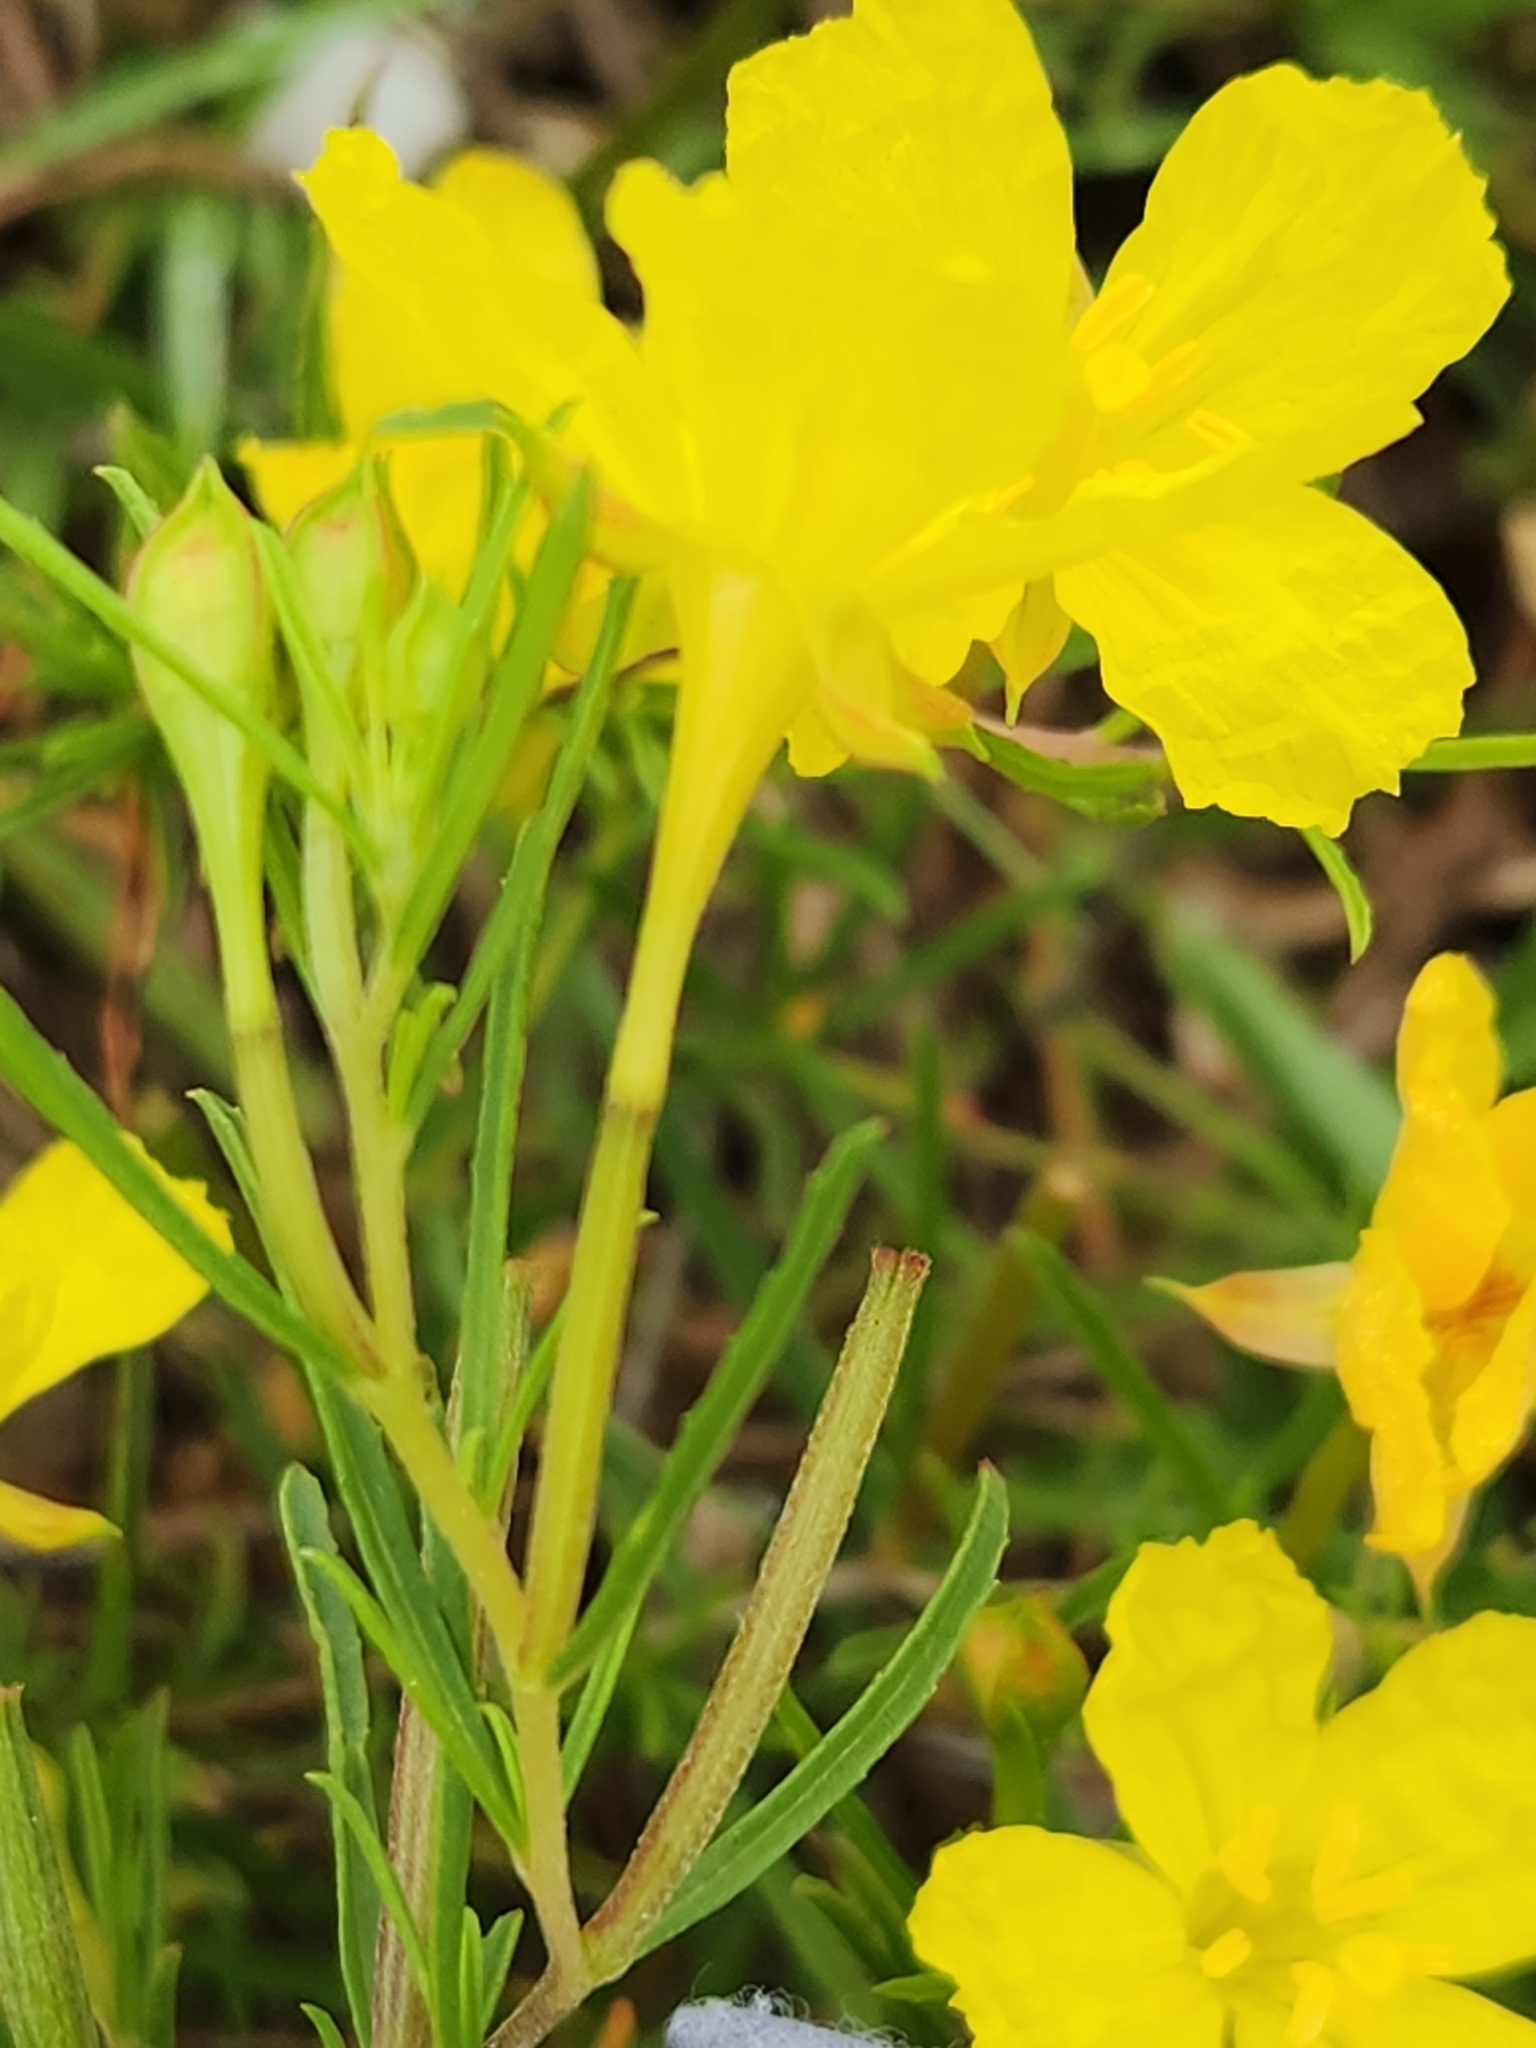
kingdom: Plantae
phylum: Tracheophyta
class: Magnoliopsida
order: Myrtales
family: Onagraceae
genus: Oenothera
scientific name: Oenothera
